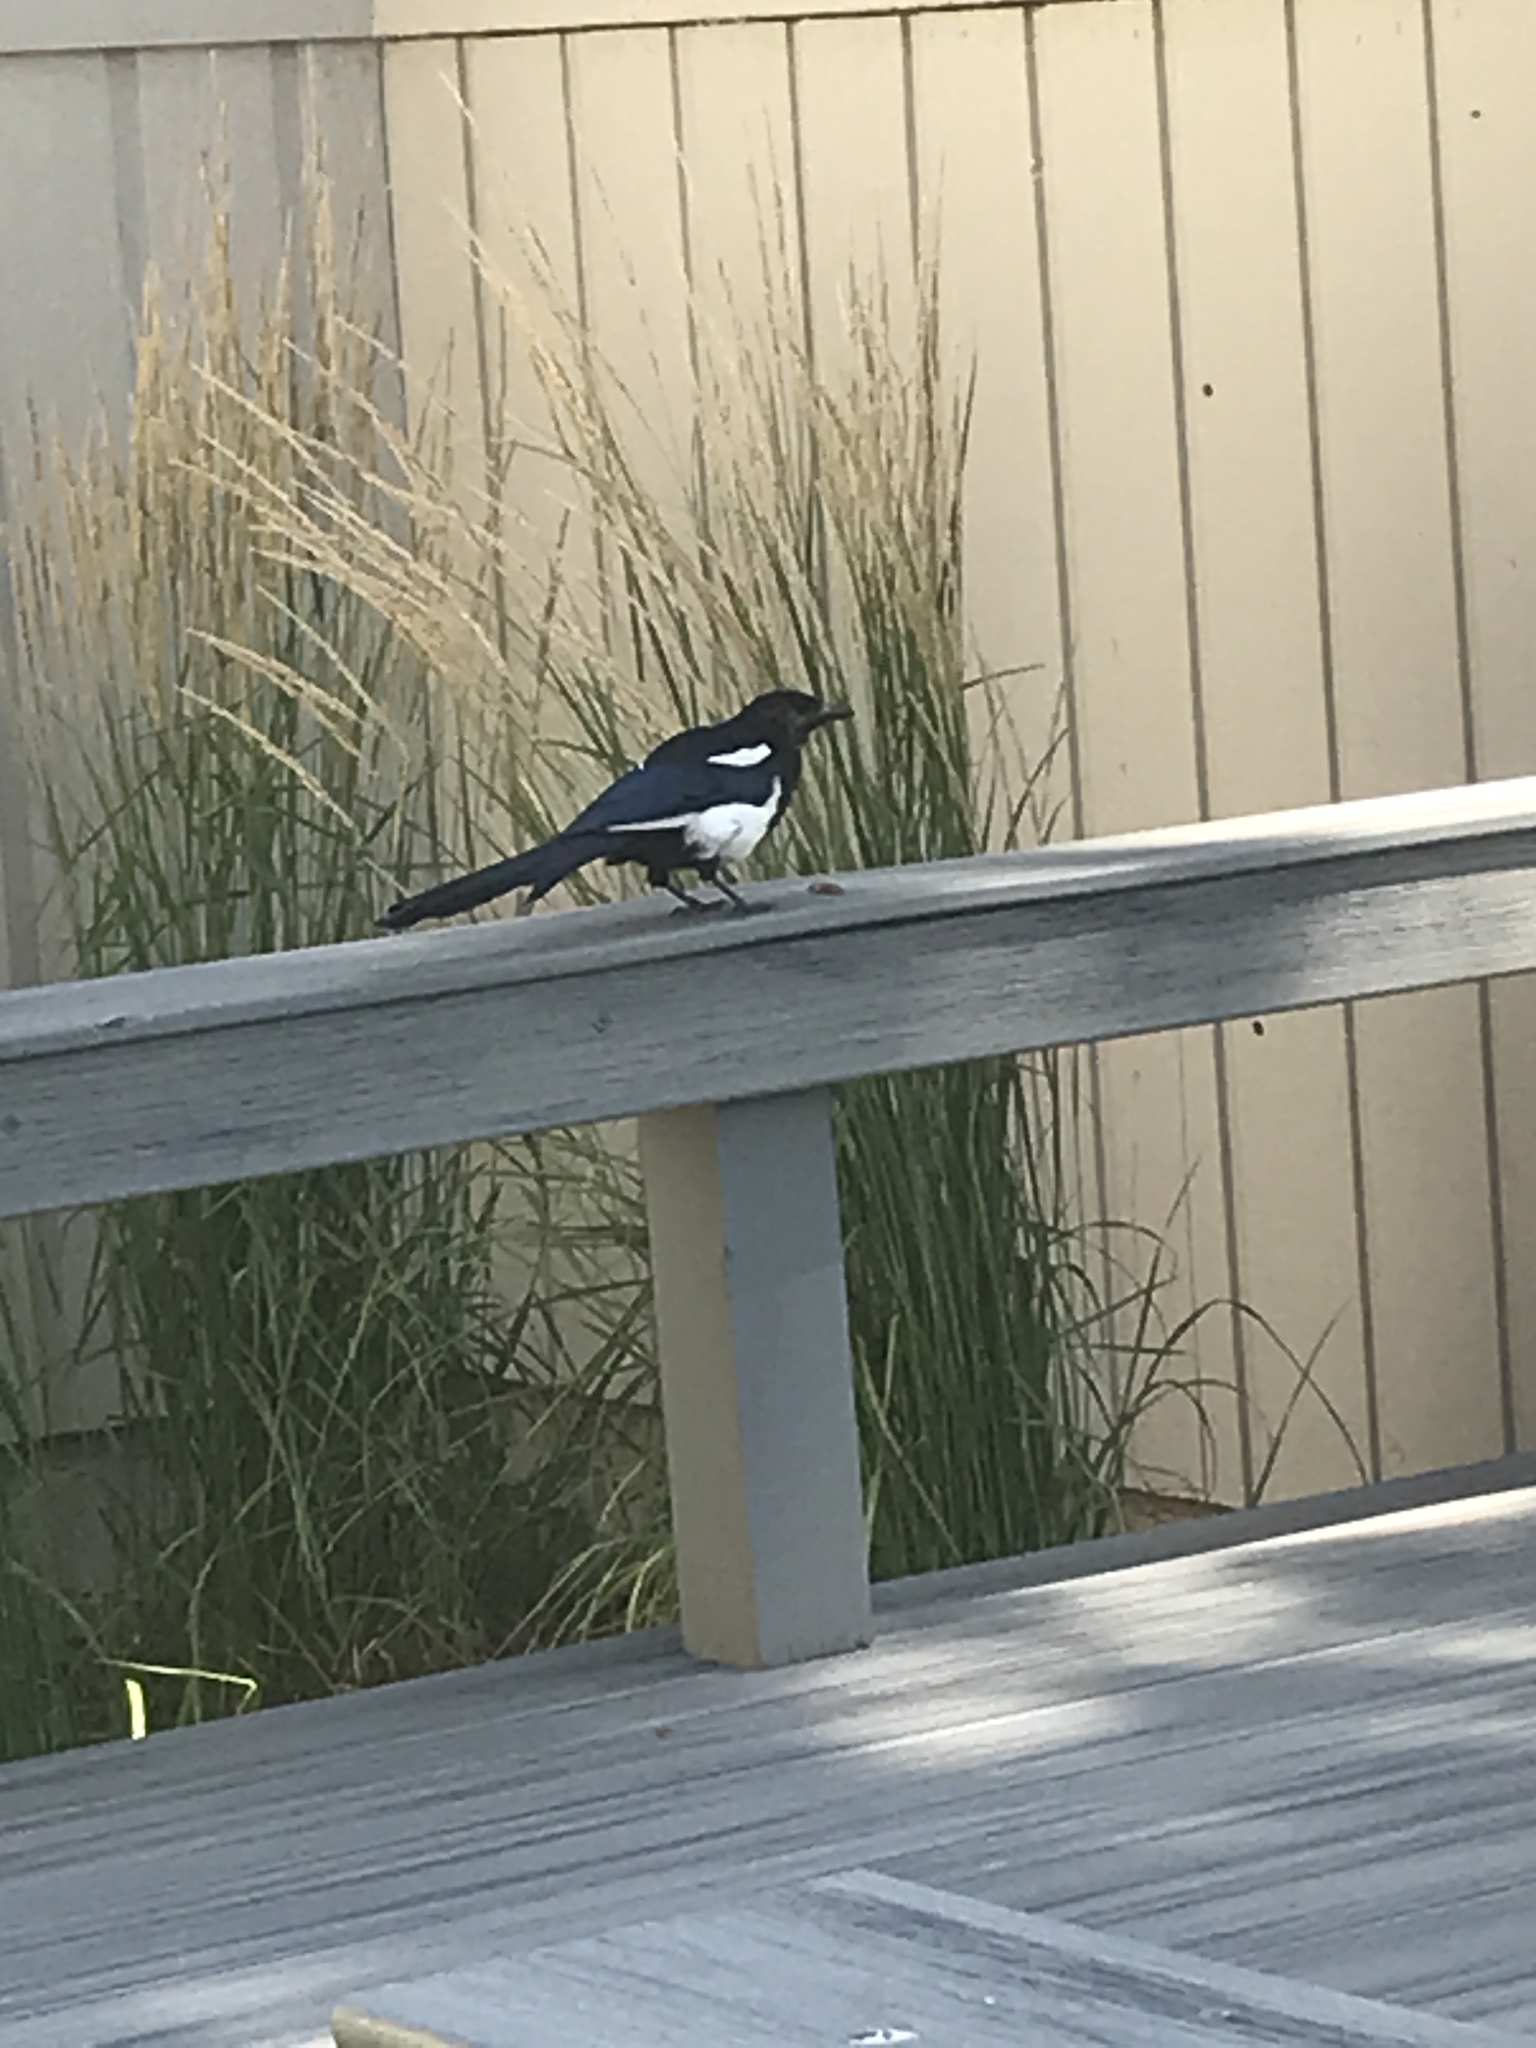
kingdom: Animalia
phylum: Chordata
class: Aves
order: Passeriformes
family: Corvidae
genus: Pica
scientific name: Pica hudsonia
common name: Black-billed magpie
